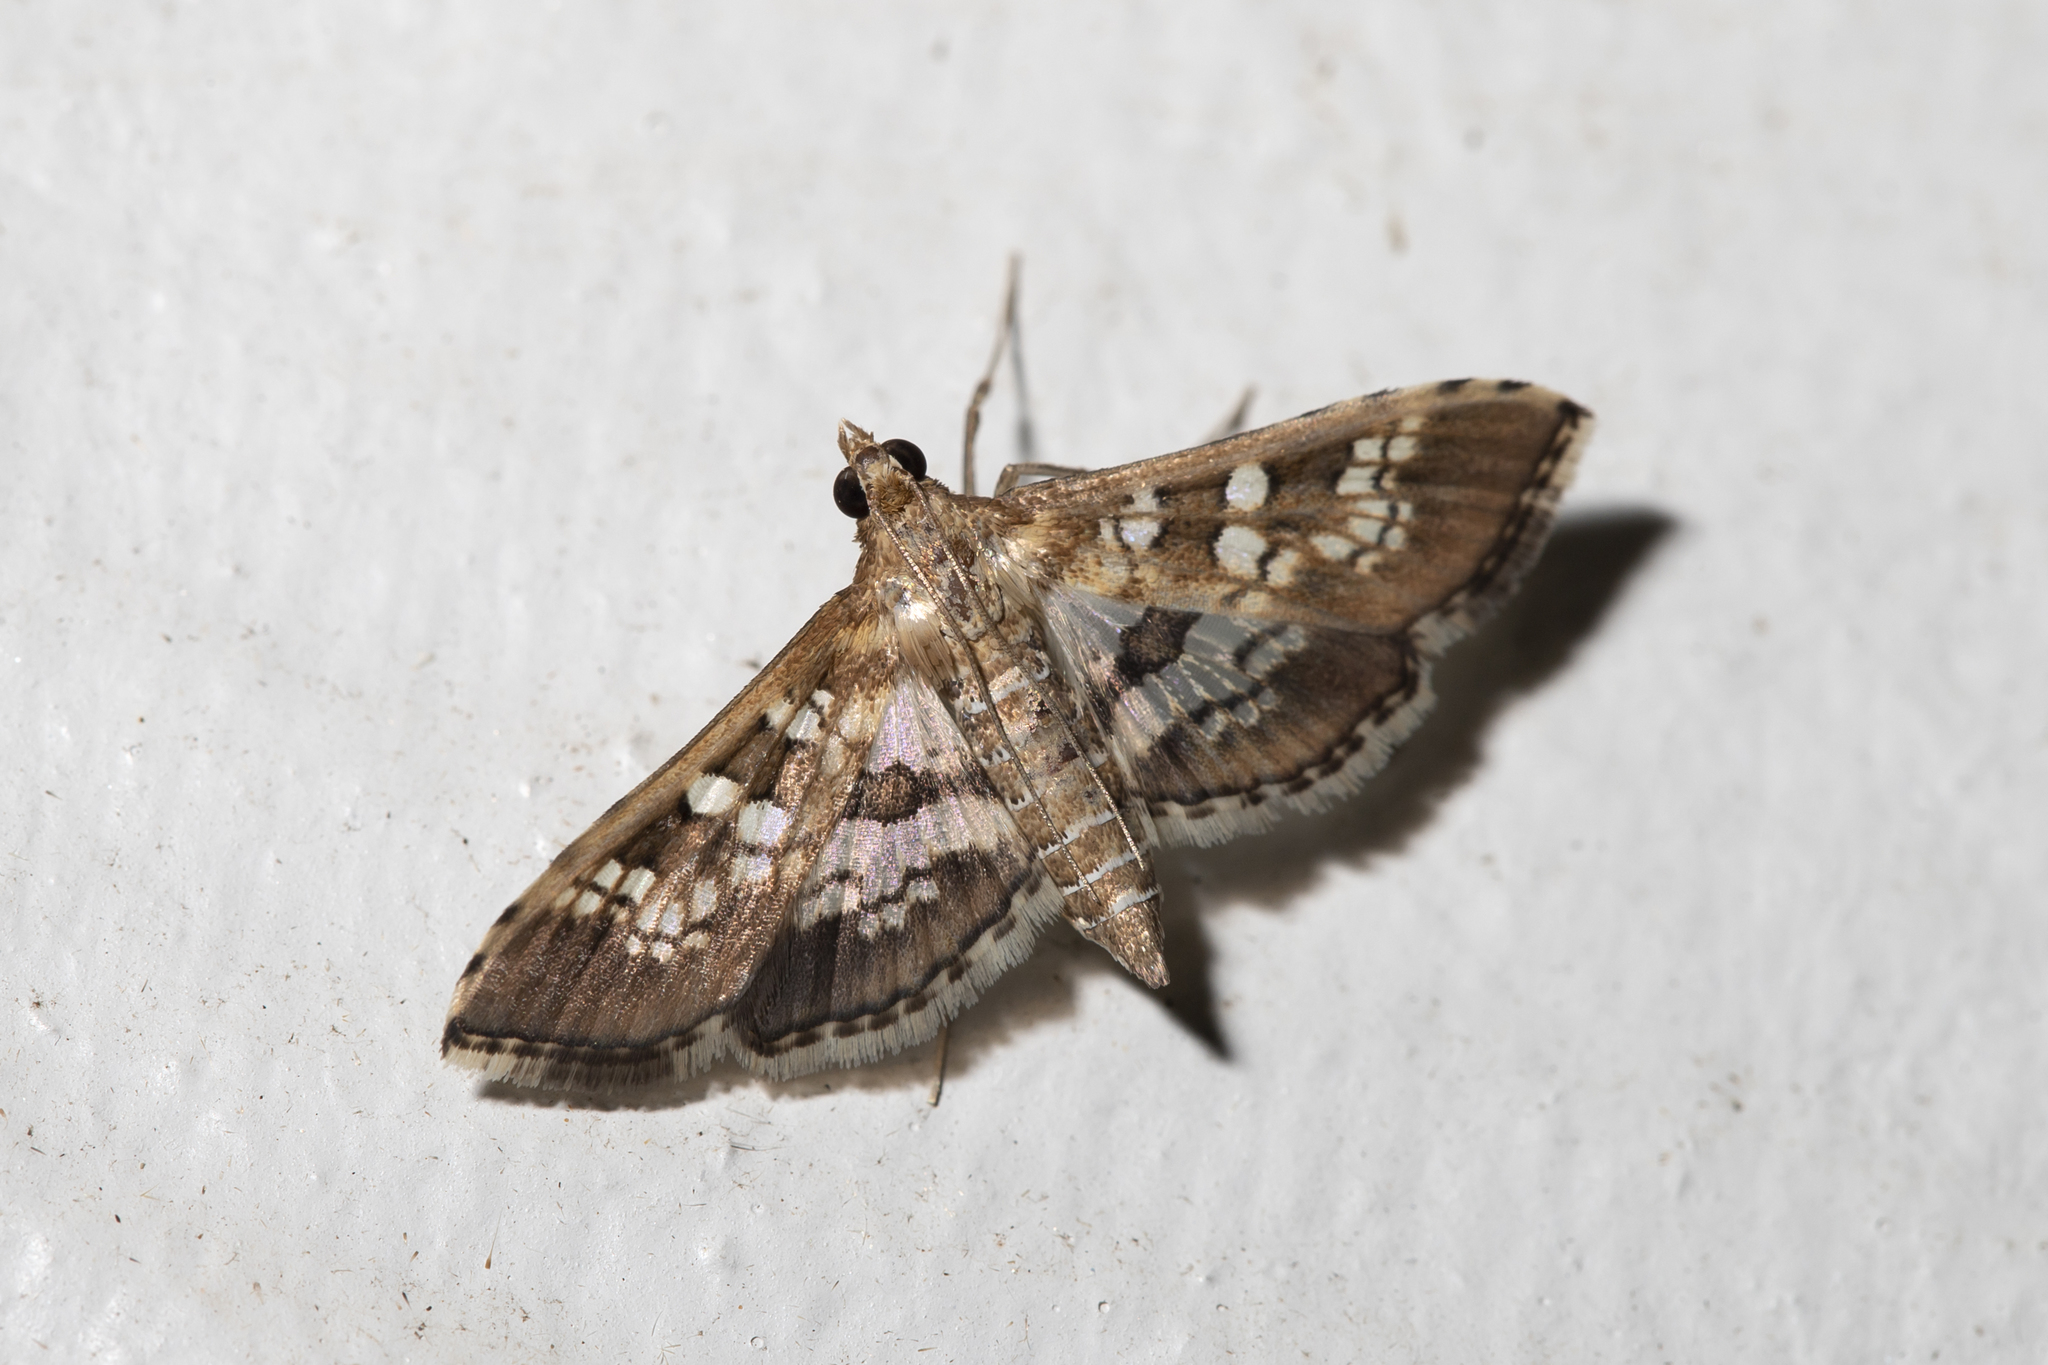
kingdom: Animalia
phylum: Arthropoda
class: Insecta
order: Lepidoptera
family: Crambidae
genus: Sameodes
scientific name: Sameodes cancellalis
